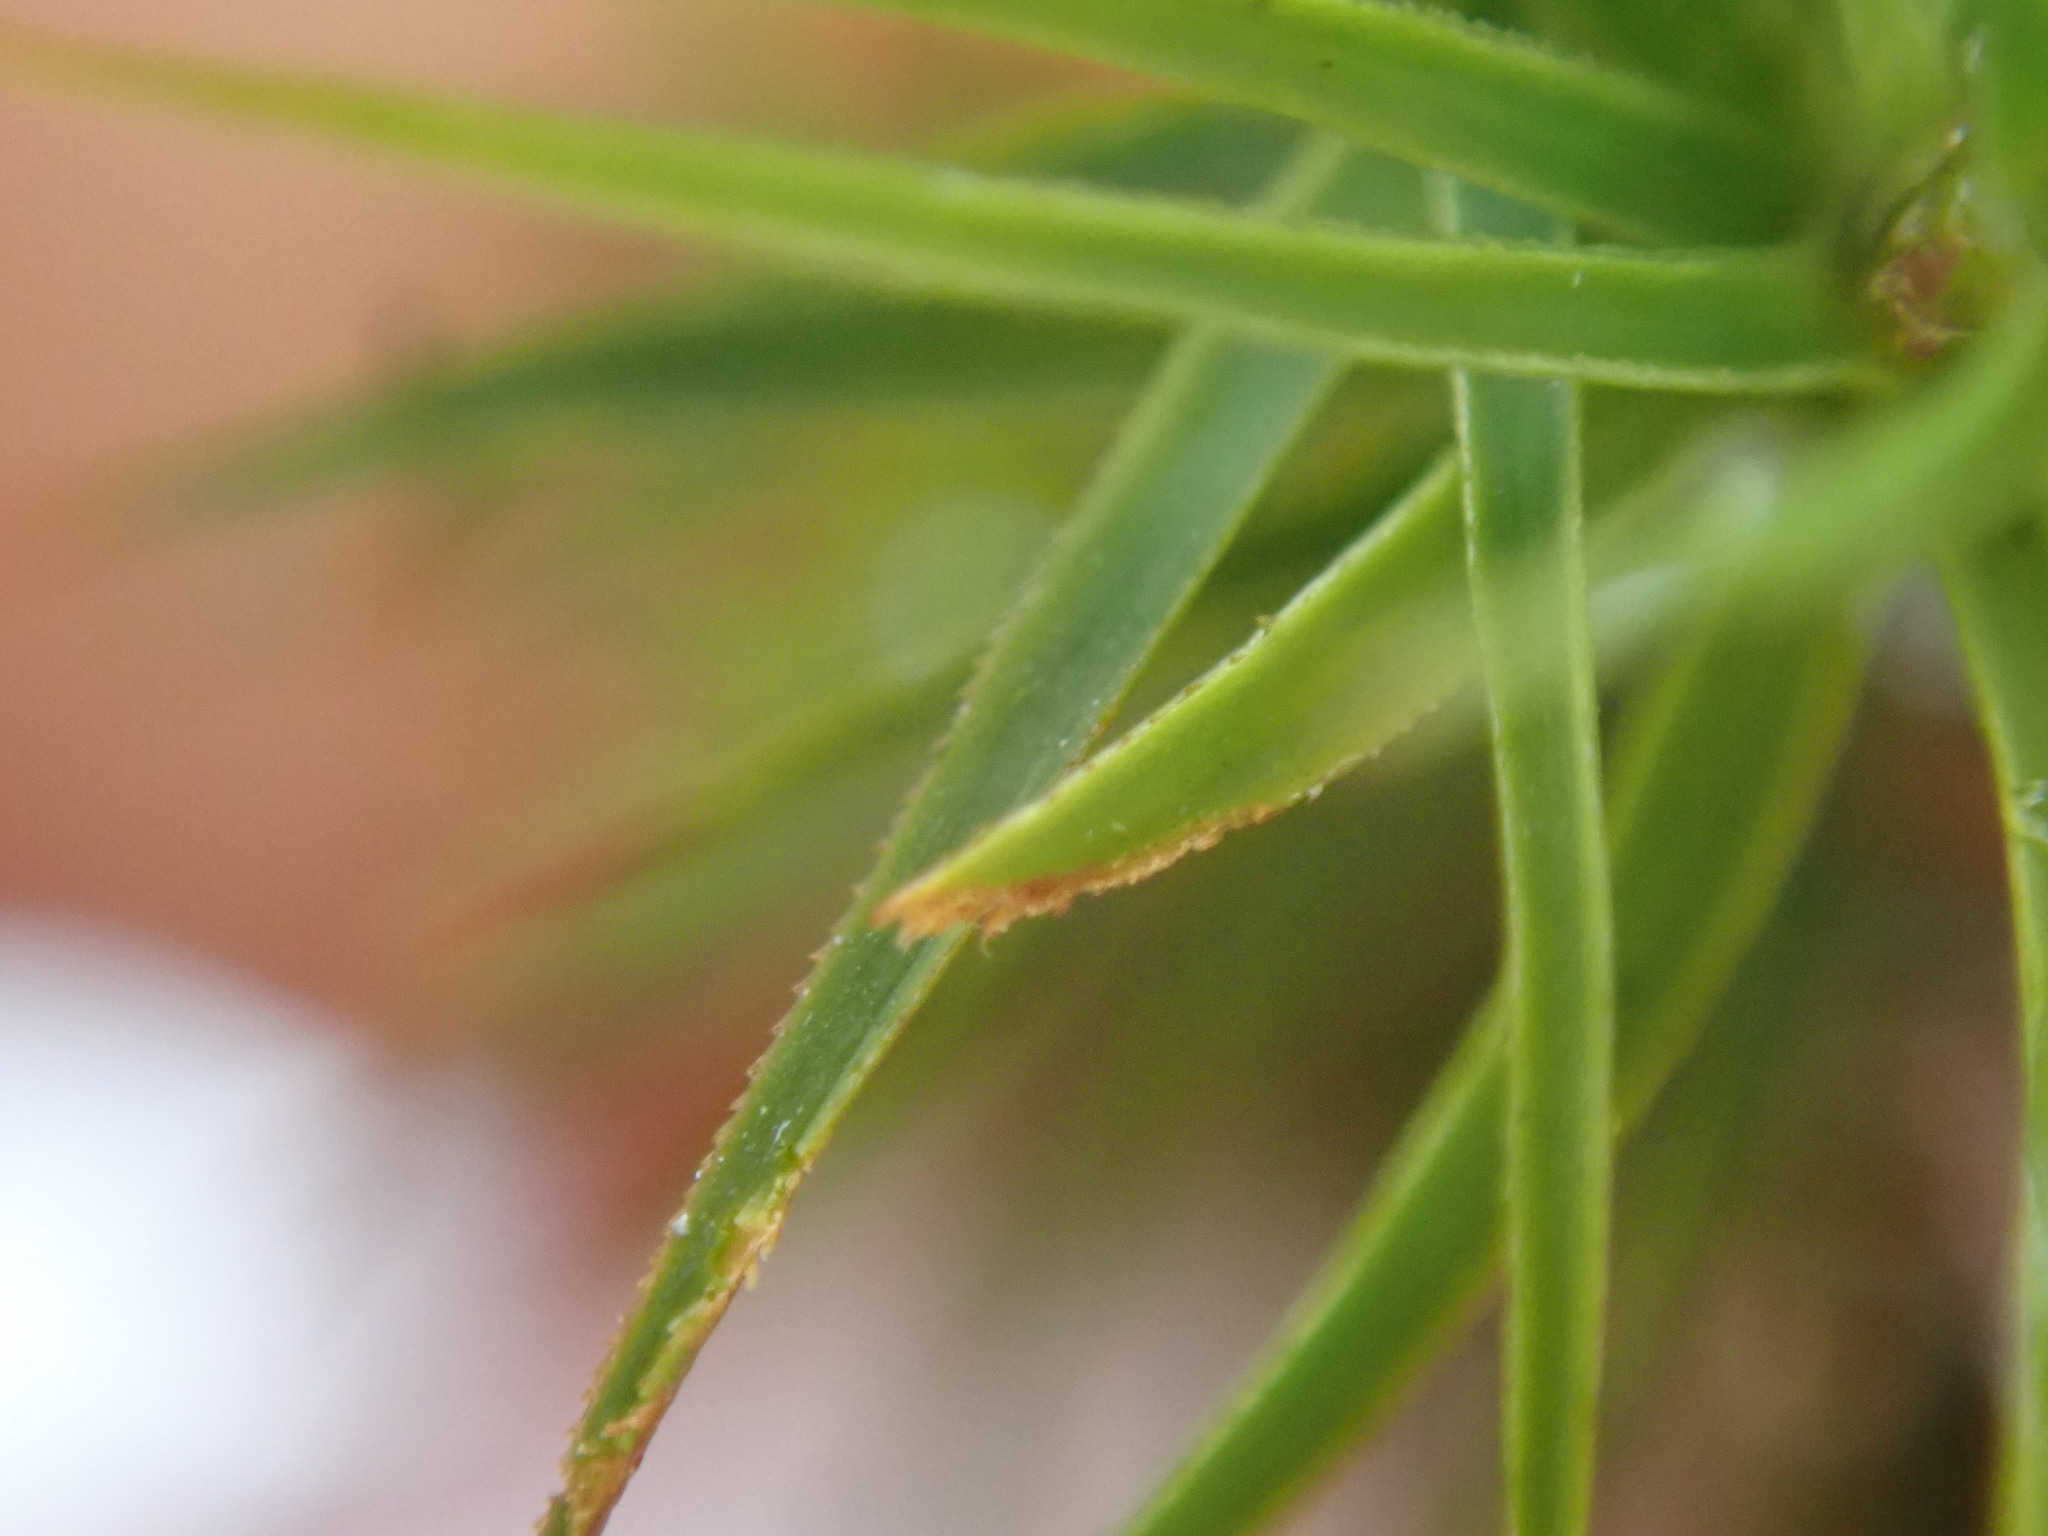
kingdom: Plantae
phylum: Bryophyta
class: Polytrichopsida
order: Polytrichales
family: Polytrichaceae
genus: Polytrichastrum
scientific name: Polytrichastrum alpinum
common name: Alpine haircap
